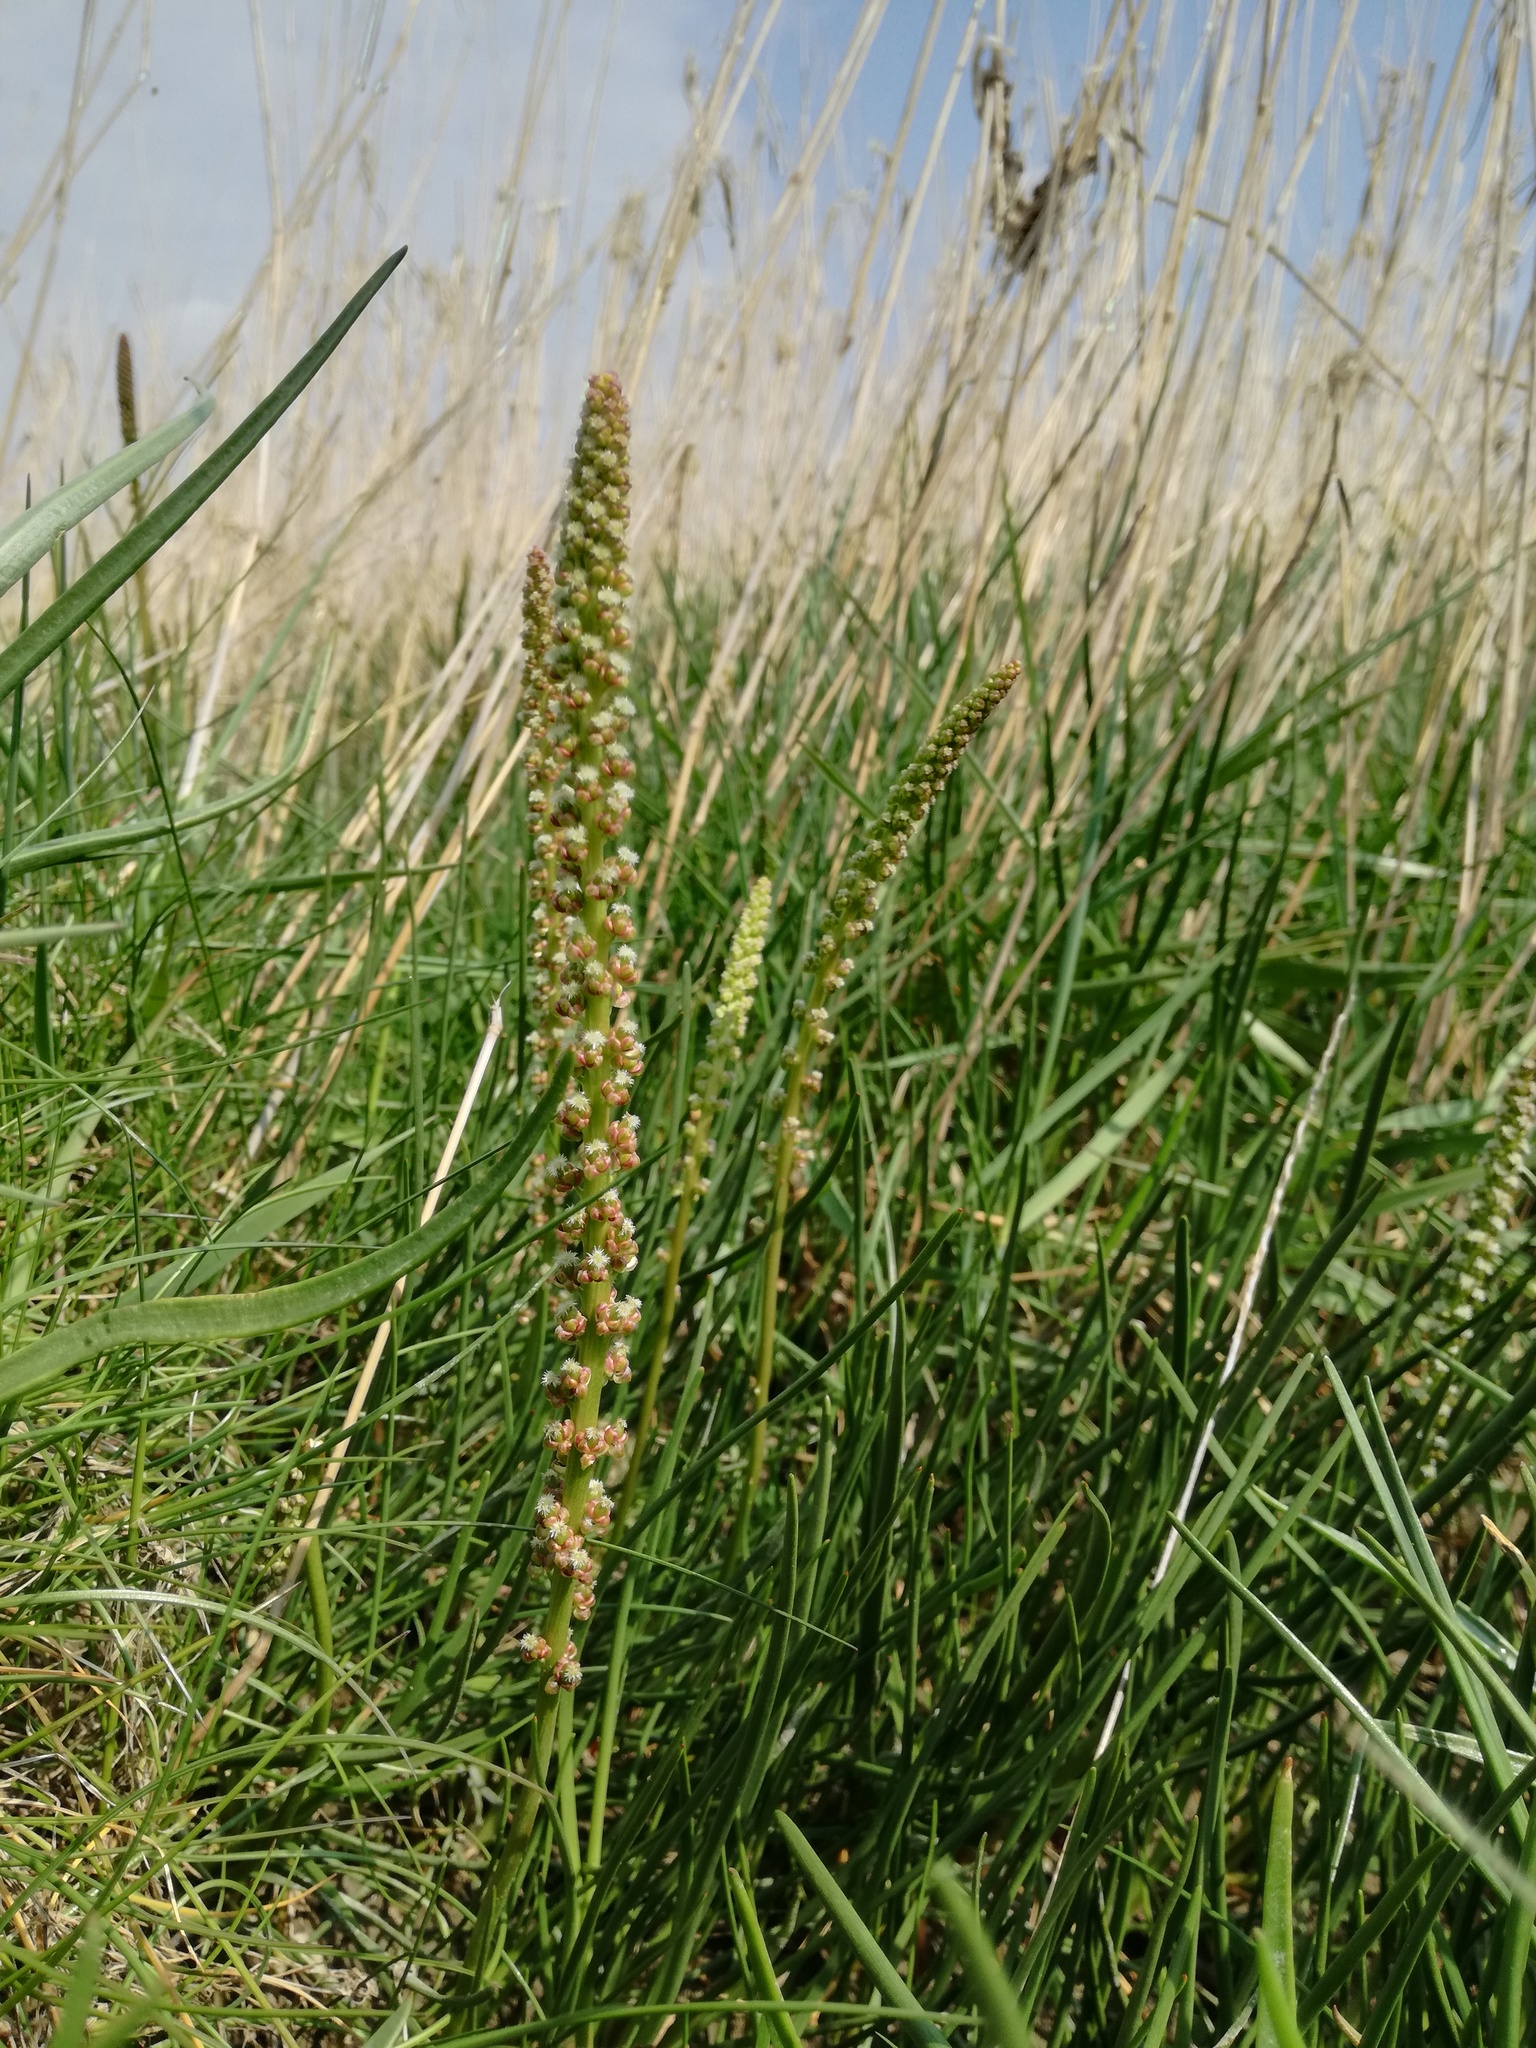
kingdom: Plantae
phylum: Tracheophyta
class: Liliopsida
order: Alismatales
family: Juncaginaceae
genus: Triglochin
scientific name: Triglochin maritima
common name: Sea arrowgrass
